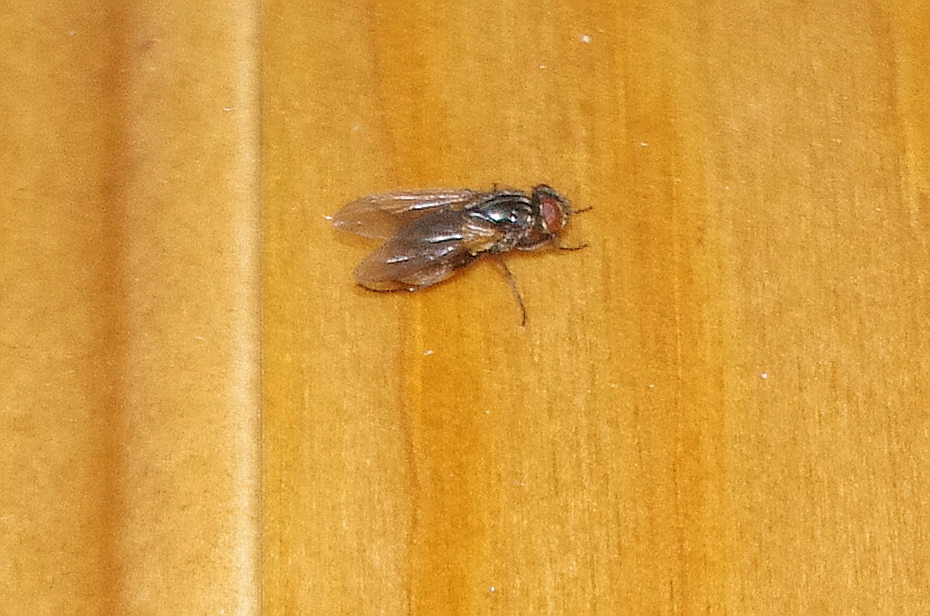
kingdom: Animalia
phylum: Arthropoda
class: Insecta
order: Diptera
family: Muscidae
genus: Musca
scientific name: Musca domestica
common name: House fly
